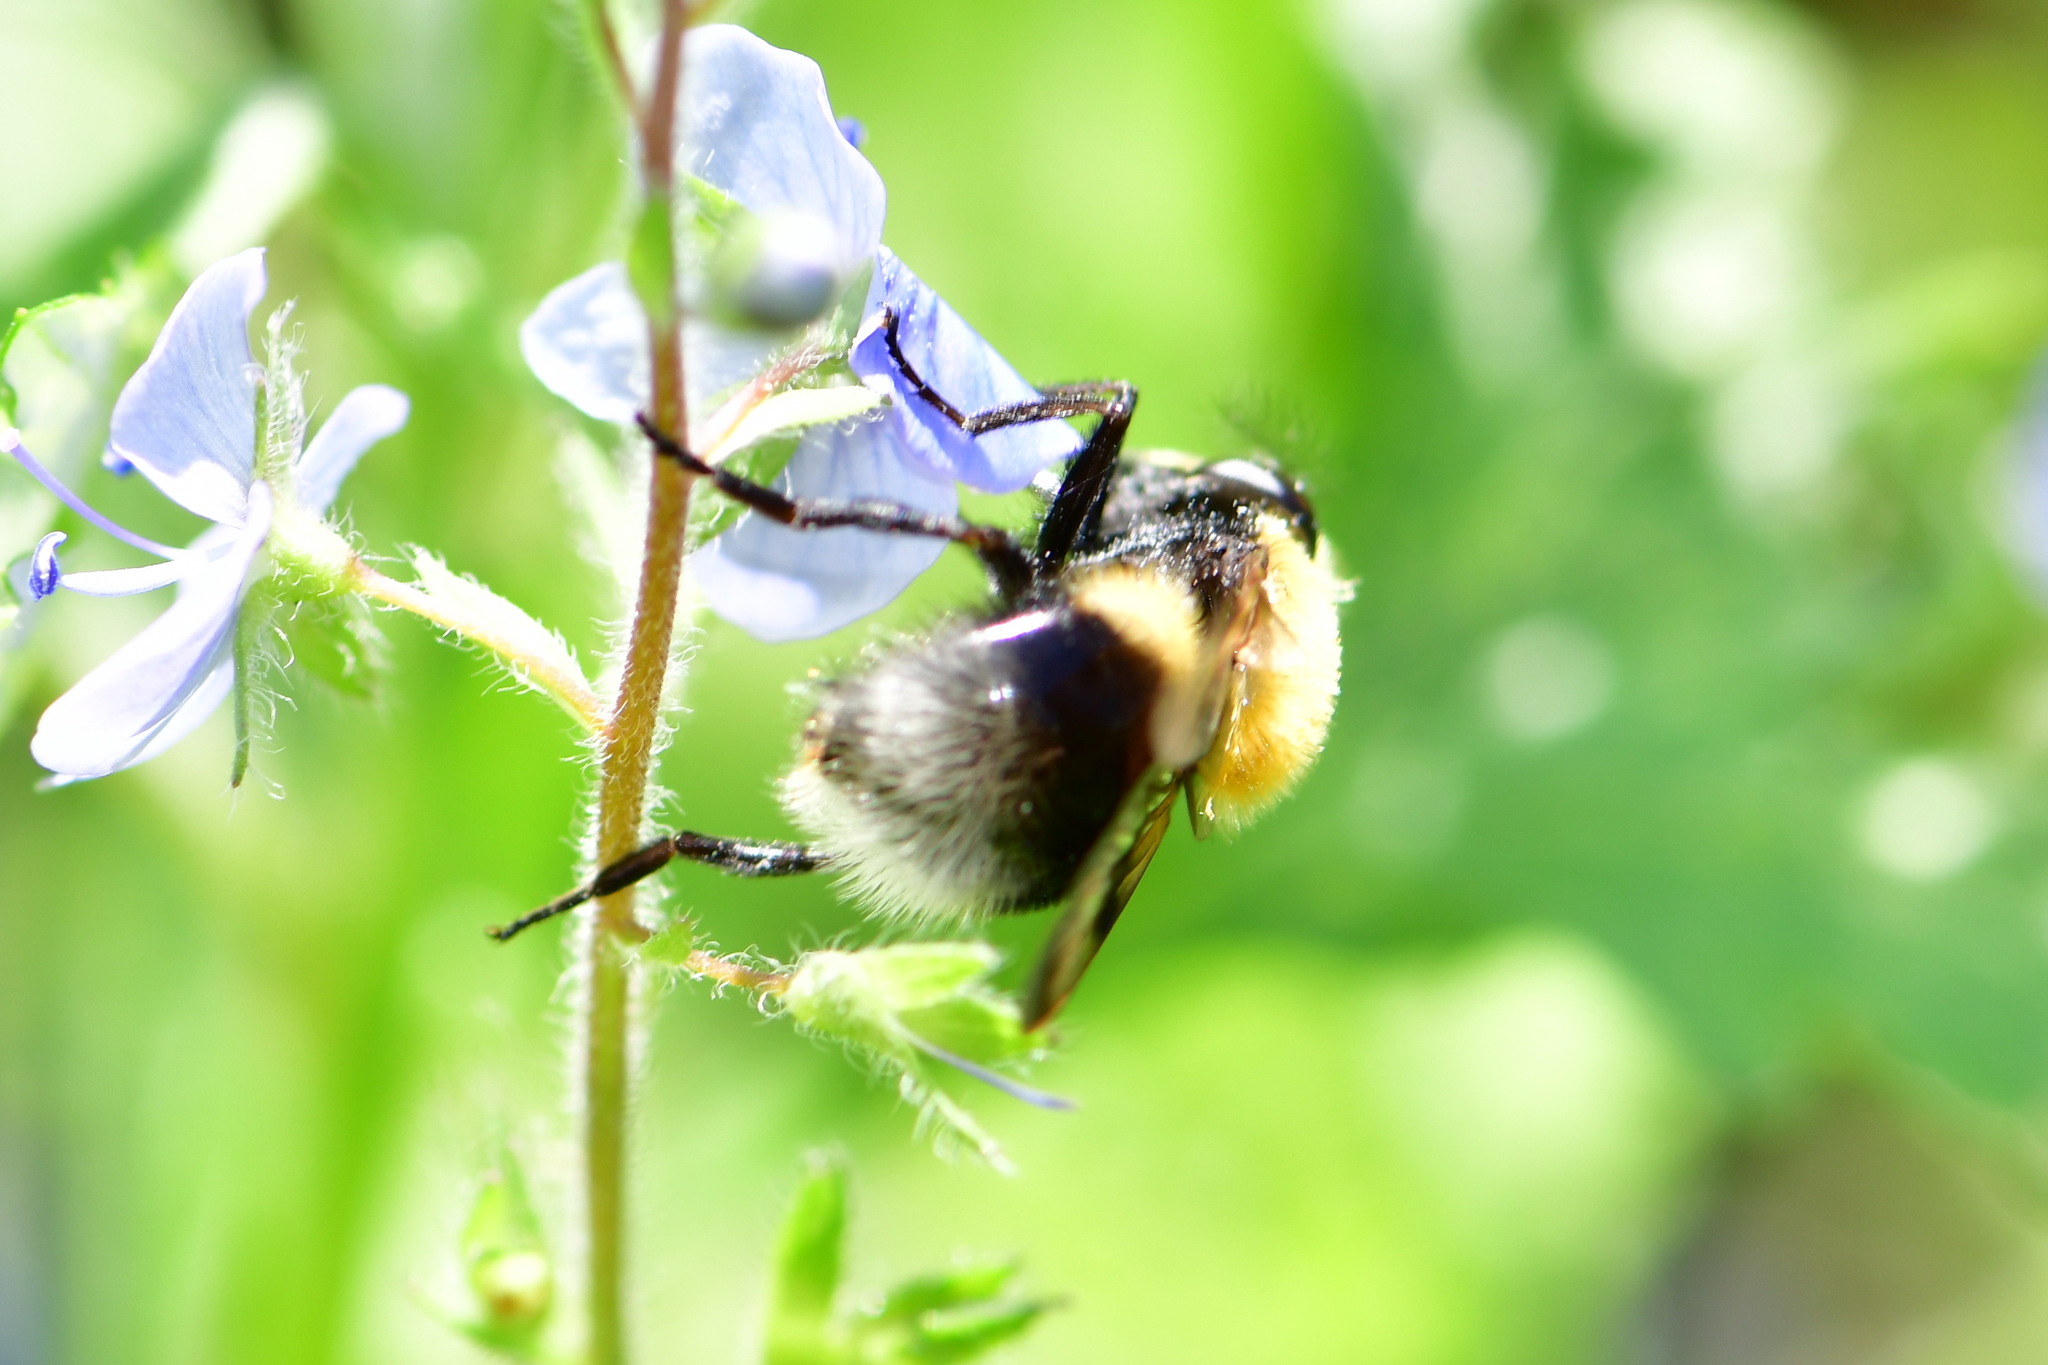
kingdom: Animalia
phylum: Arthropoda
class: Insecta
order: Diptera
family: Syrphidae
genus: Volucella
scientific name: Volucella bombylans
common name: Bumble bee hover fly
